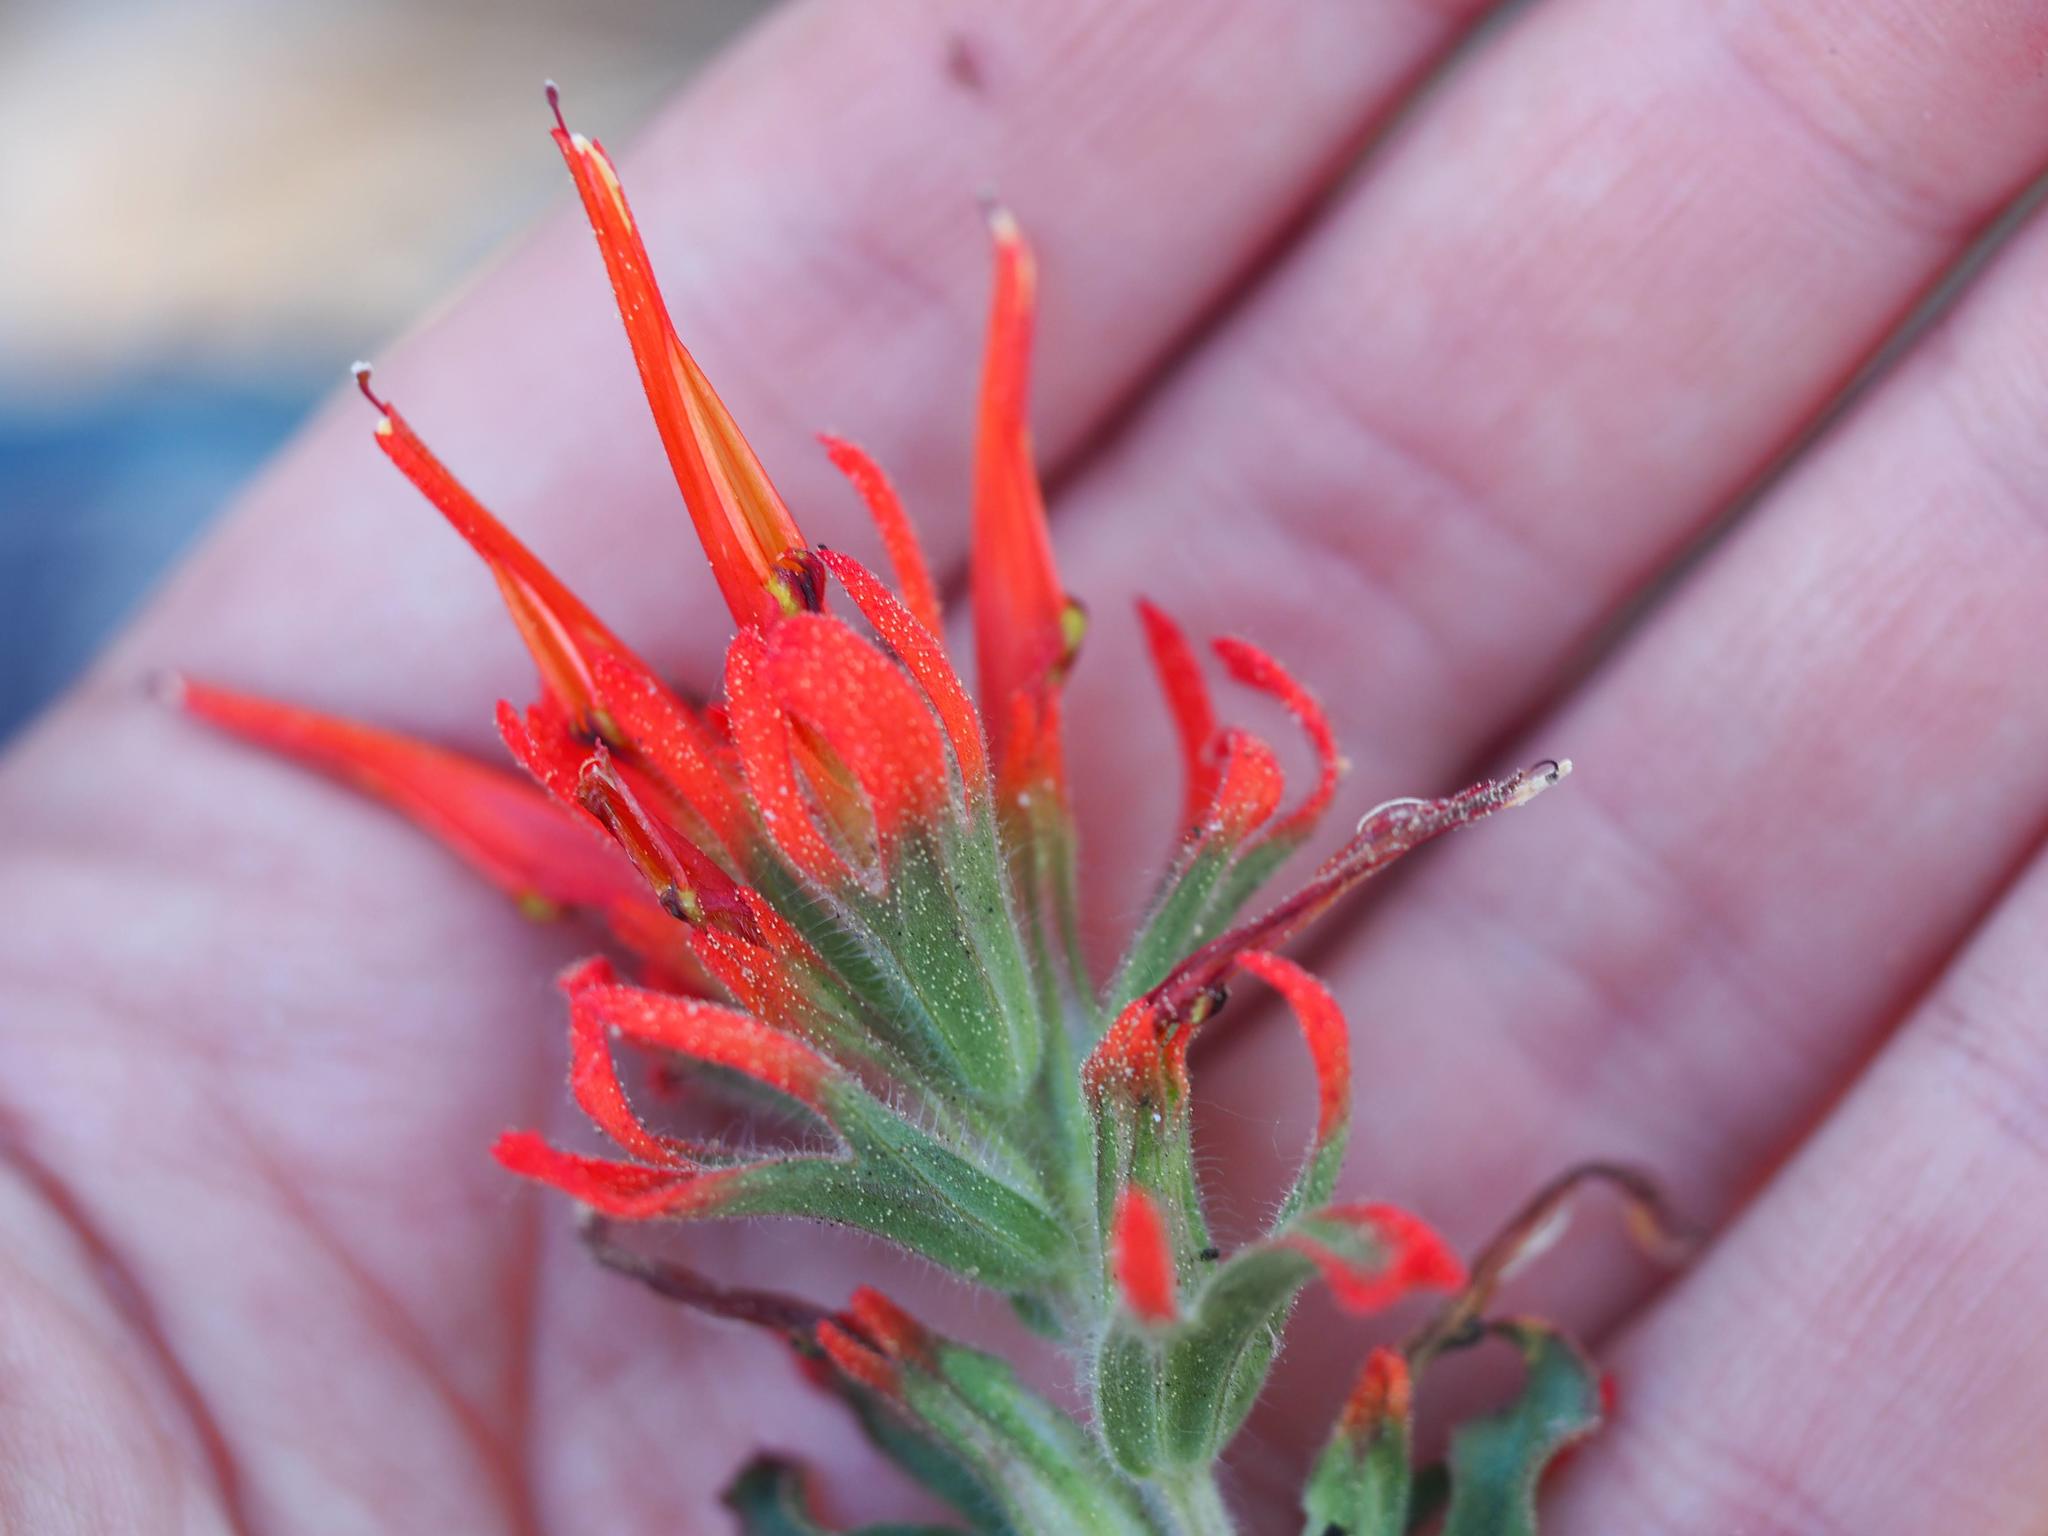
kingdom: Plantae
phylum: Tracheophyta
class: Magnoliopsida
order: Lamiales
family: Orobanchaceae
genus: Castilleja
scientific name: Castilleja applegatei
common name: Wavy-leaf paintbrush
